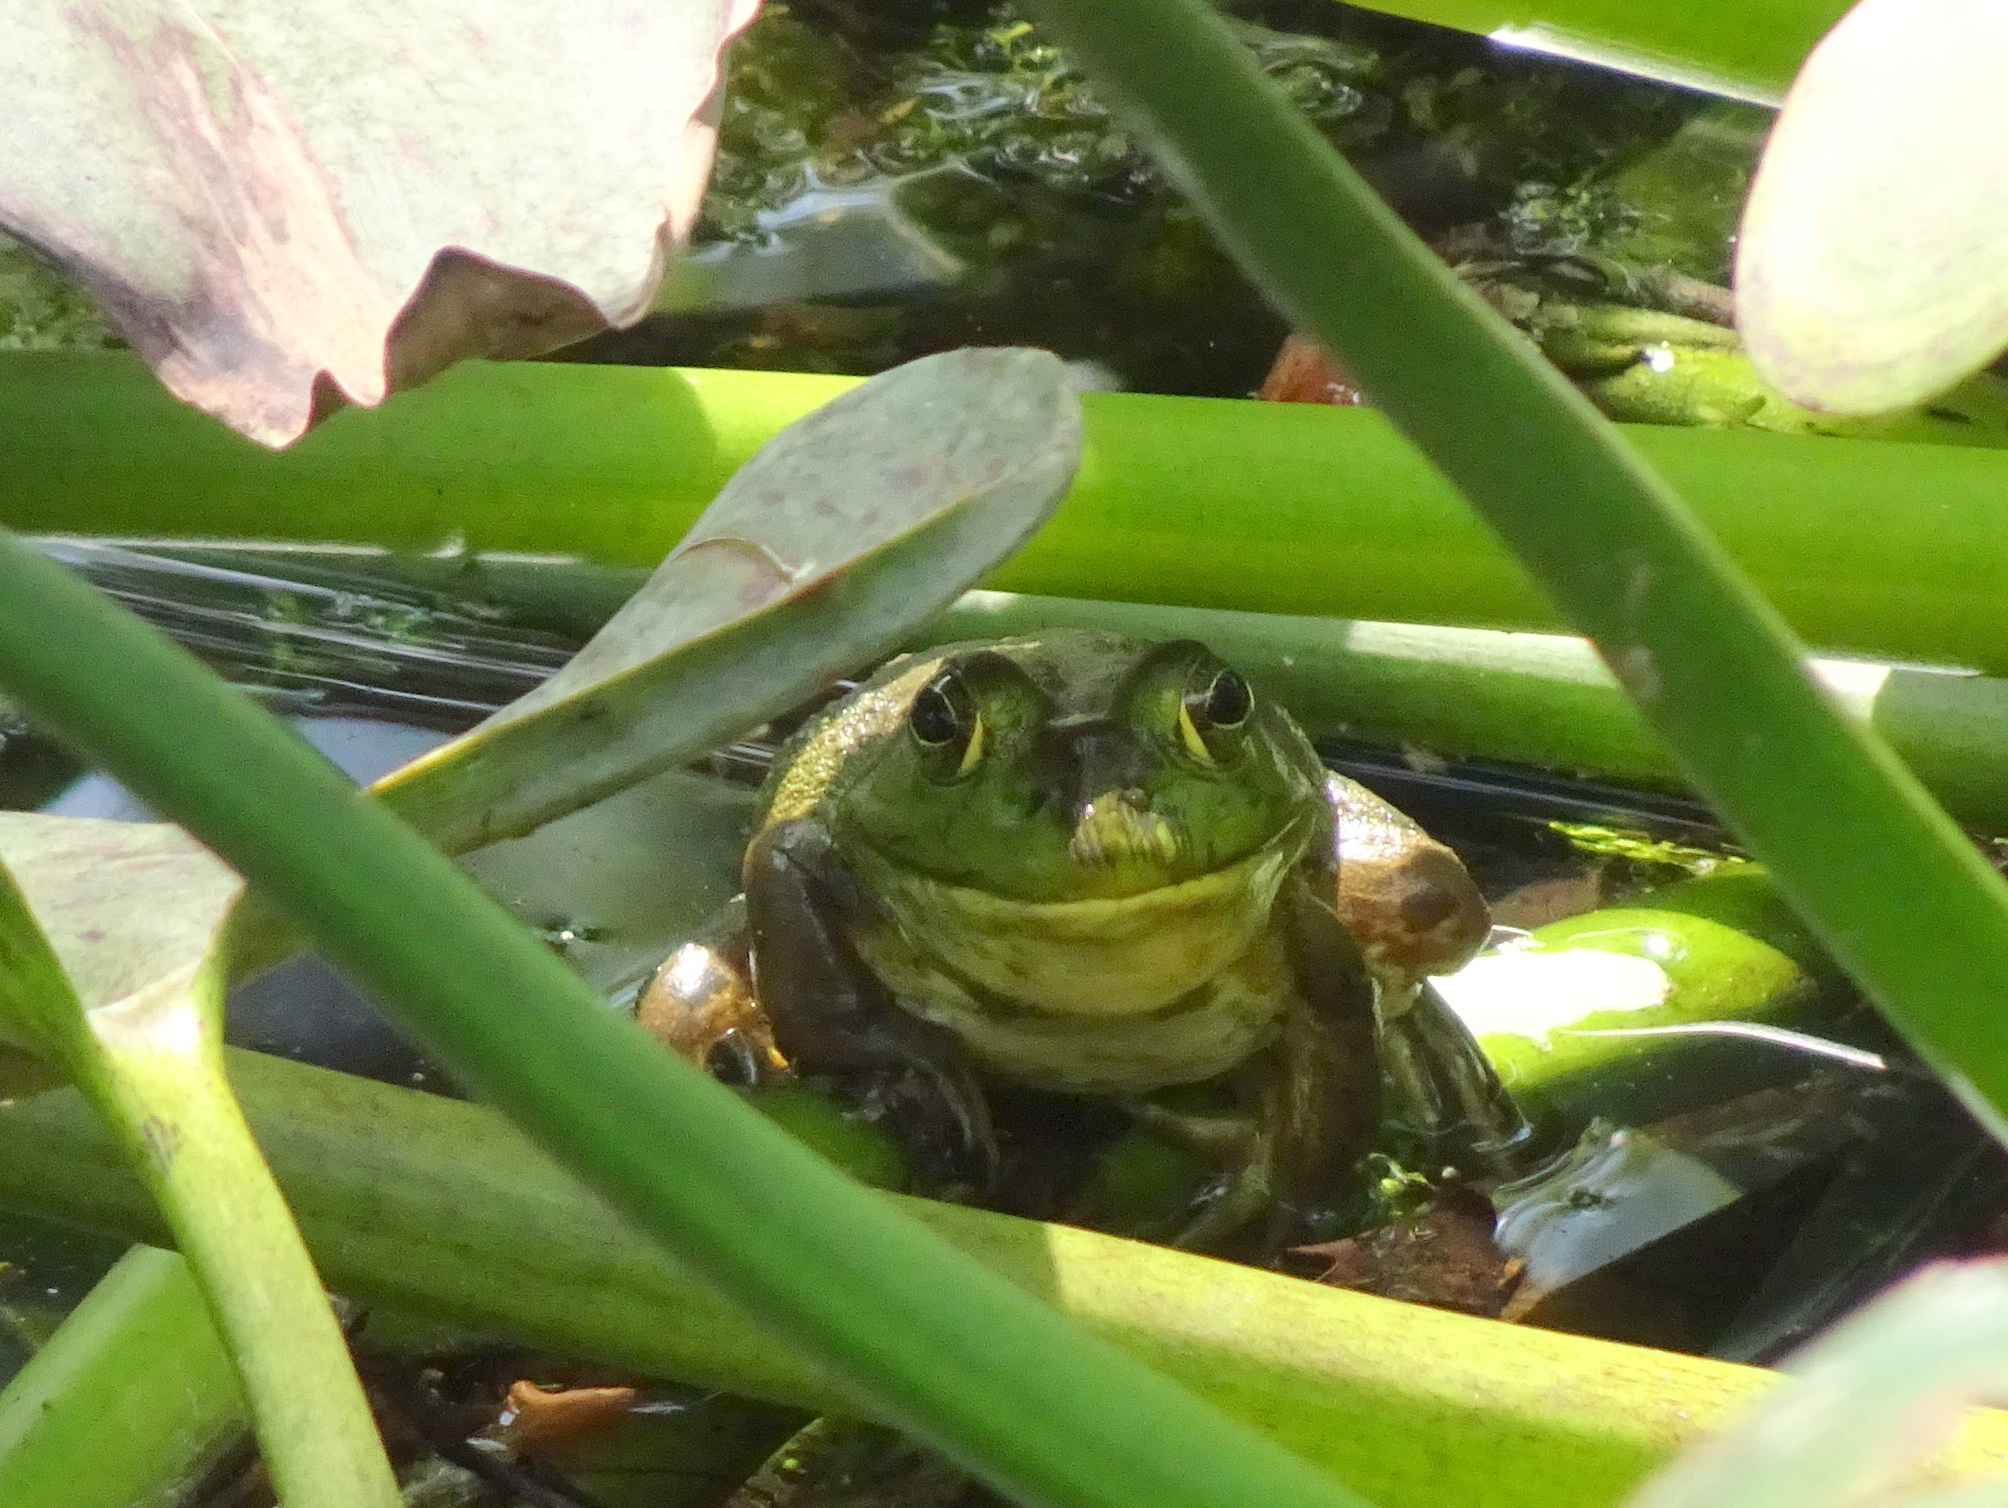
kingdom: Animalia
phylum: Chordata
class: Amphibia
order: Anura
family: Ranidae
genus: Lithobates
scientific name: Lithobates catesbeianus
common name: American bullfrog
